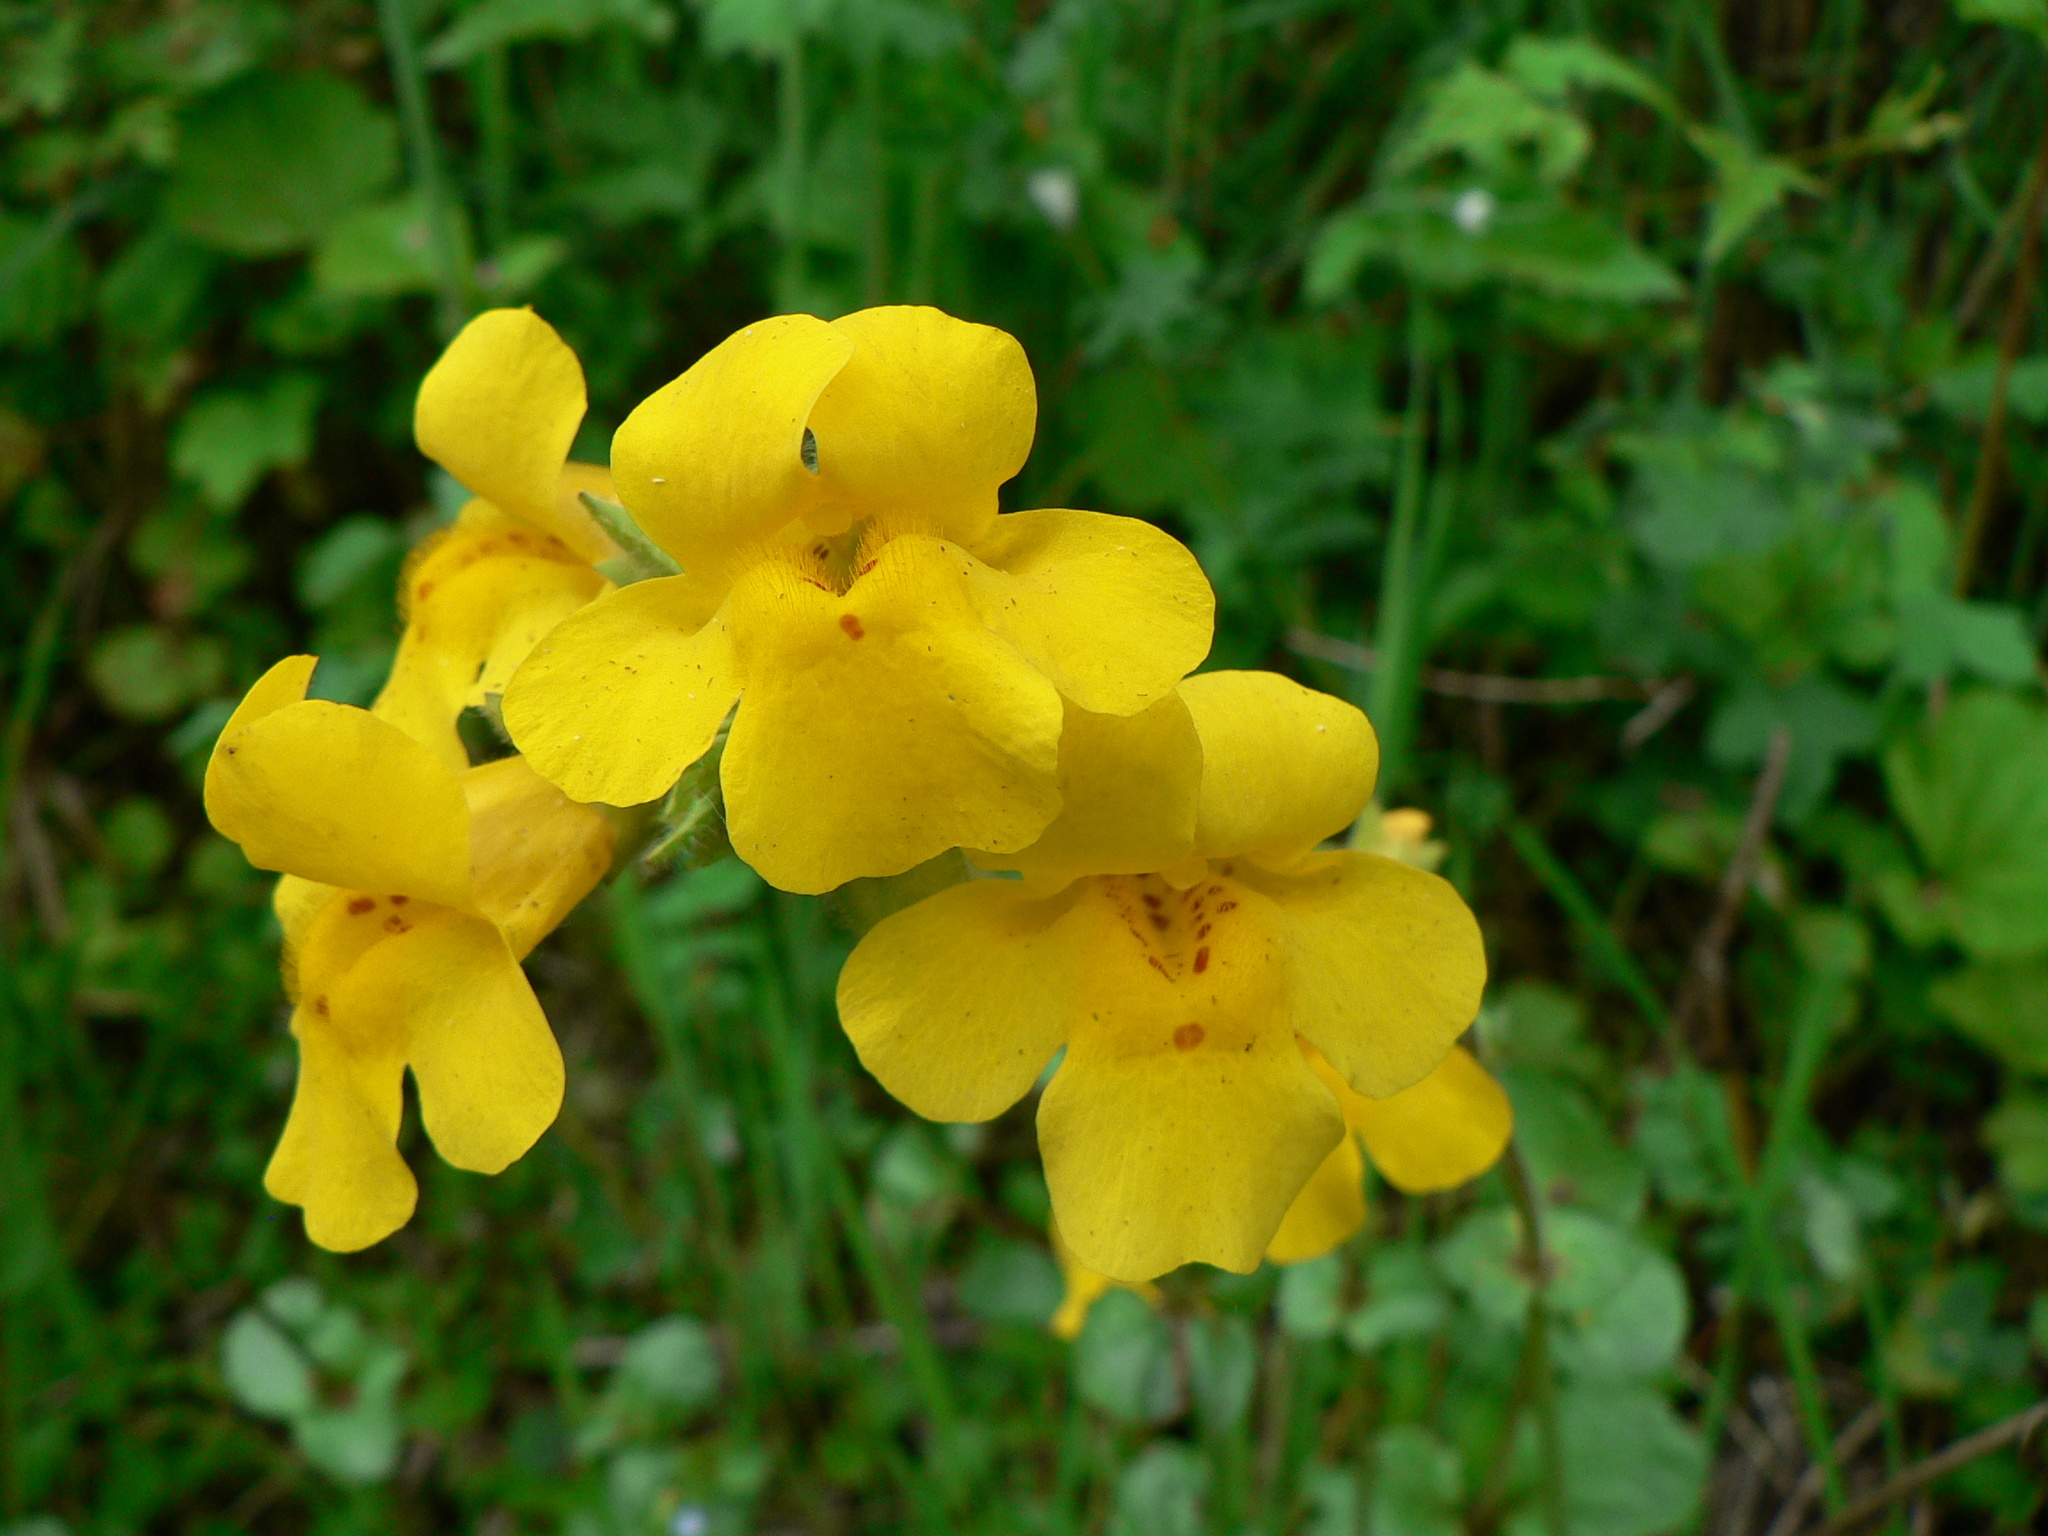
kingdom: Plantae
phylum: Tracheophyta
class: Magnoliopsida
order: Lamiales
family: Phrymaceae
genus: Erythranthe
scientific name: Erythranthe guttata
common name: Monkeyflower
